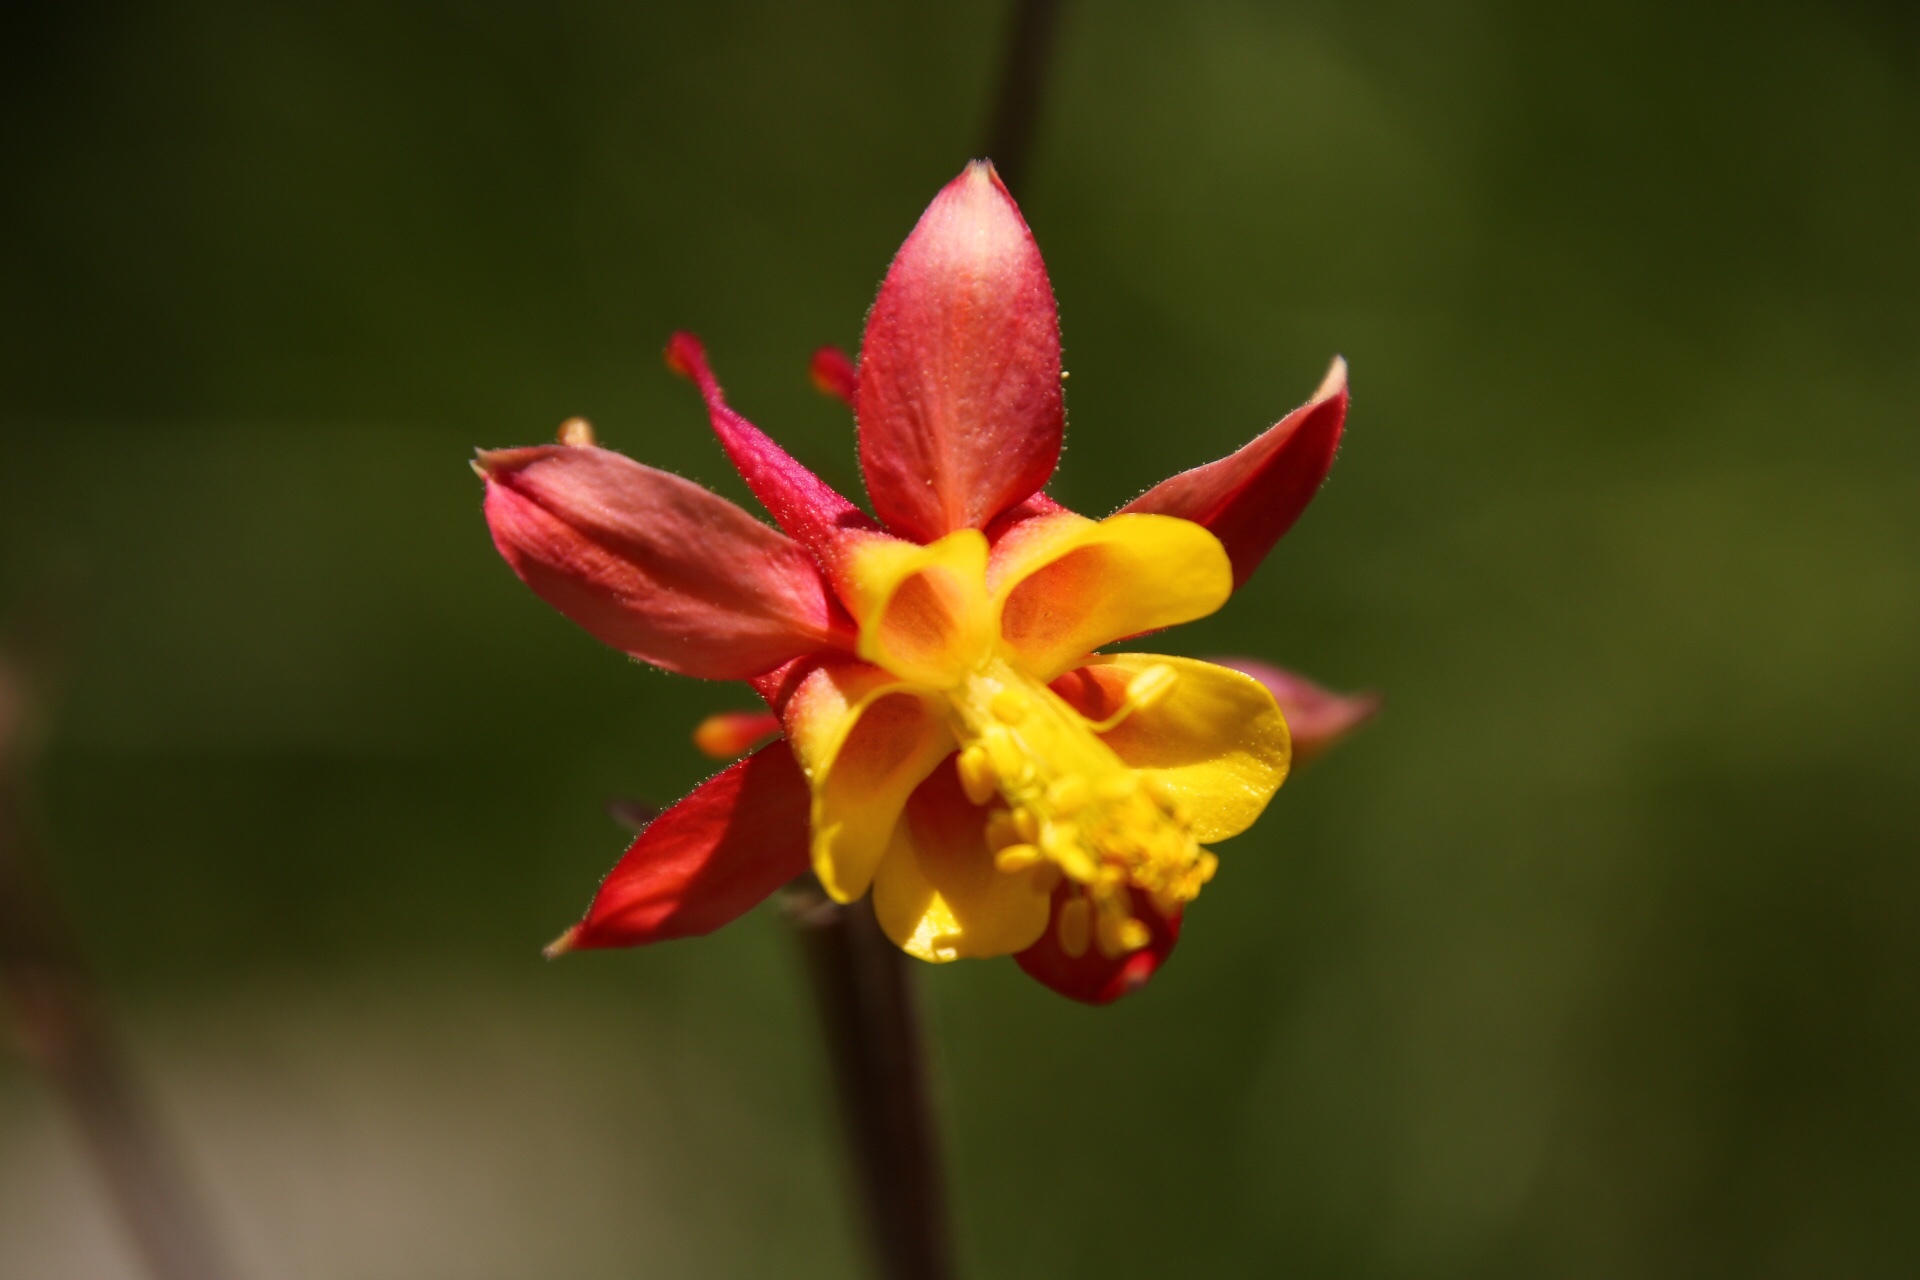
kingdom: Plantae
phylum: Tracheophyta
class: Magnoliopsida
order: Ranunculales
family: Ranunculaceae
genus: Aquilegia
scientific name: Aquilegia formosa
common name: Sitka columbine
